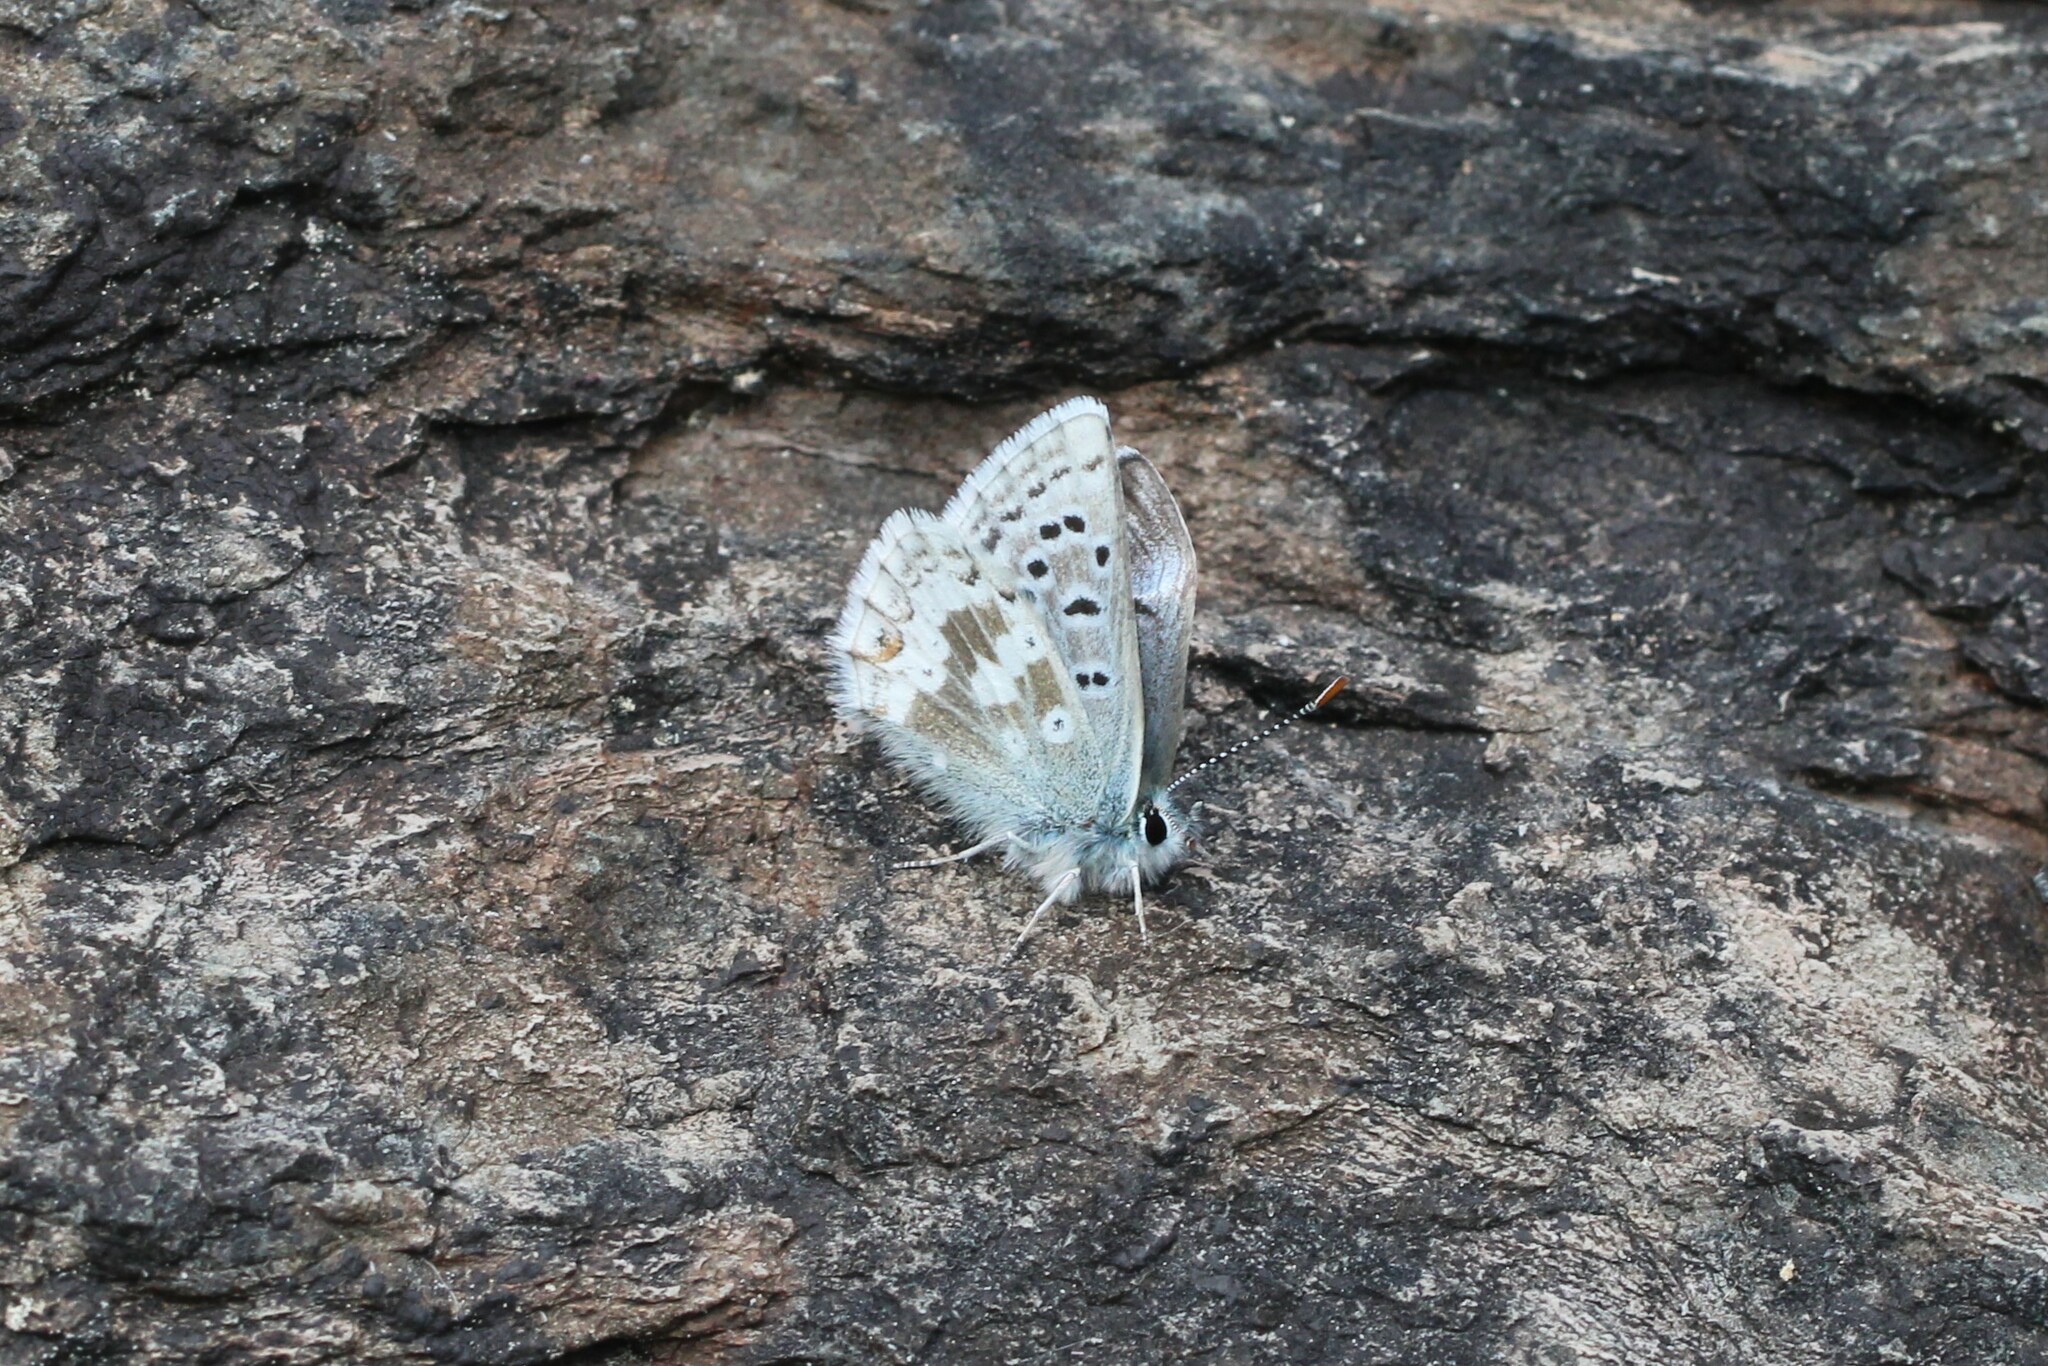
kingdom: Animalia
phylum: Arthropoda
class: Insecta
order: Lepidoptera
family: Lycaenidae
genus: Agriades
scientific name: Agriades glandon
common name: Glandon blue
